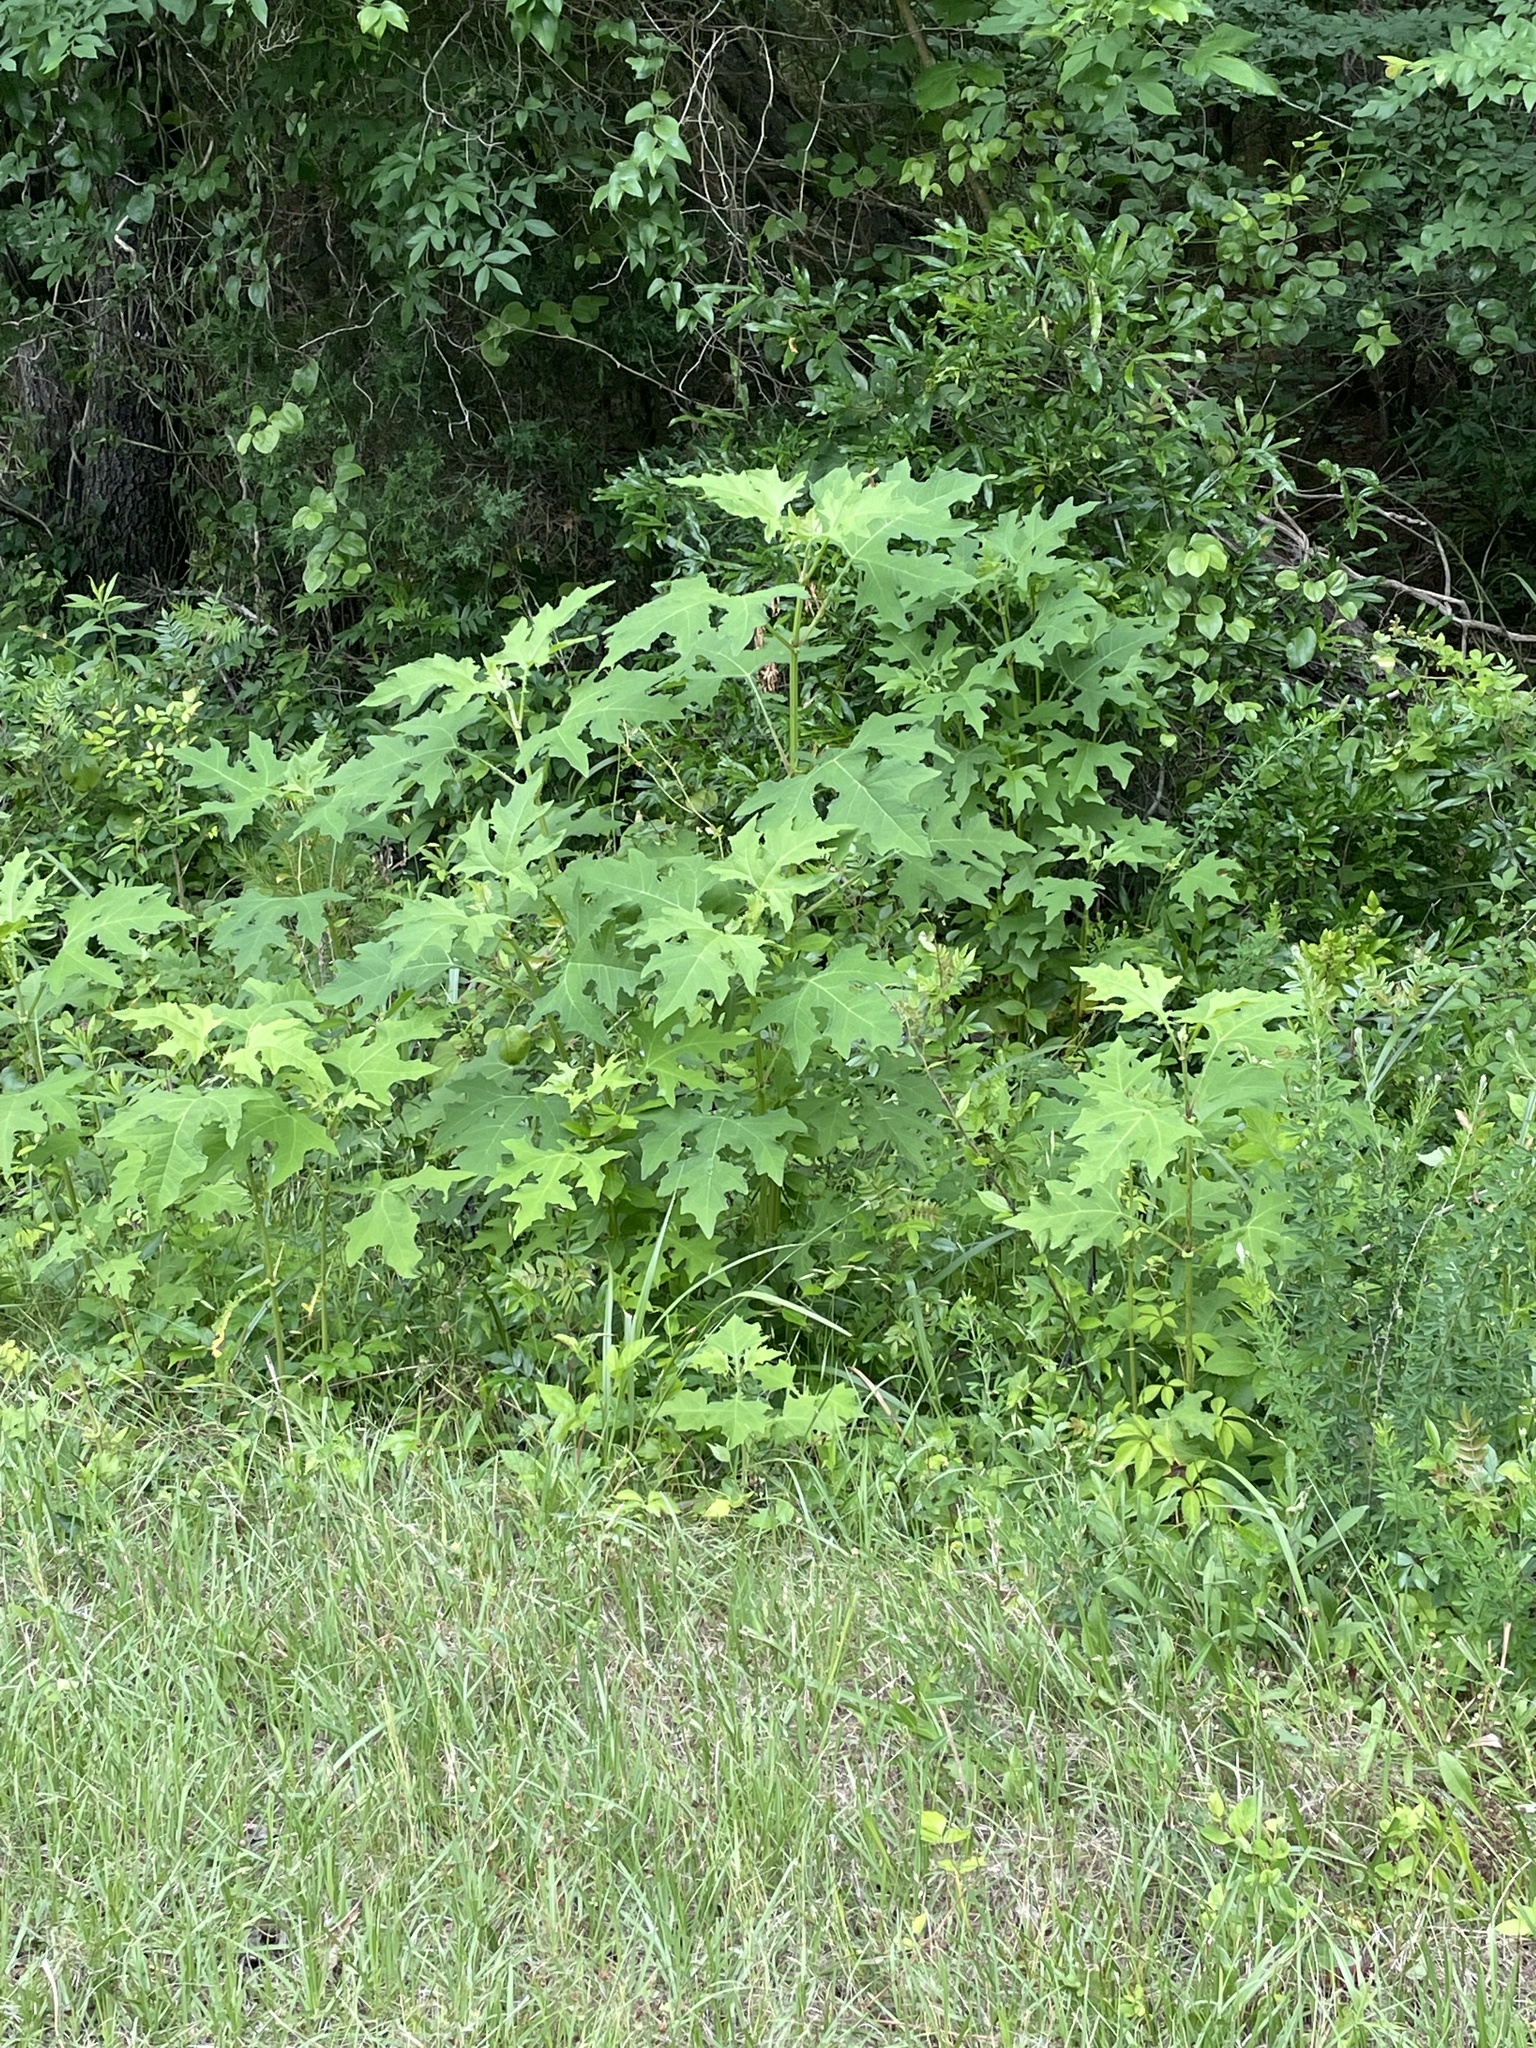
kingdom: Plantae
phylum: Tracheophyta
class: Magnoliopsida
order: Asterales
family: Asteraceae
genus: Smallanthus
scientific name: Smallanthus uvedalia
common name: Bear's-foot
